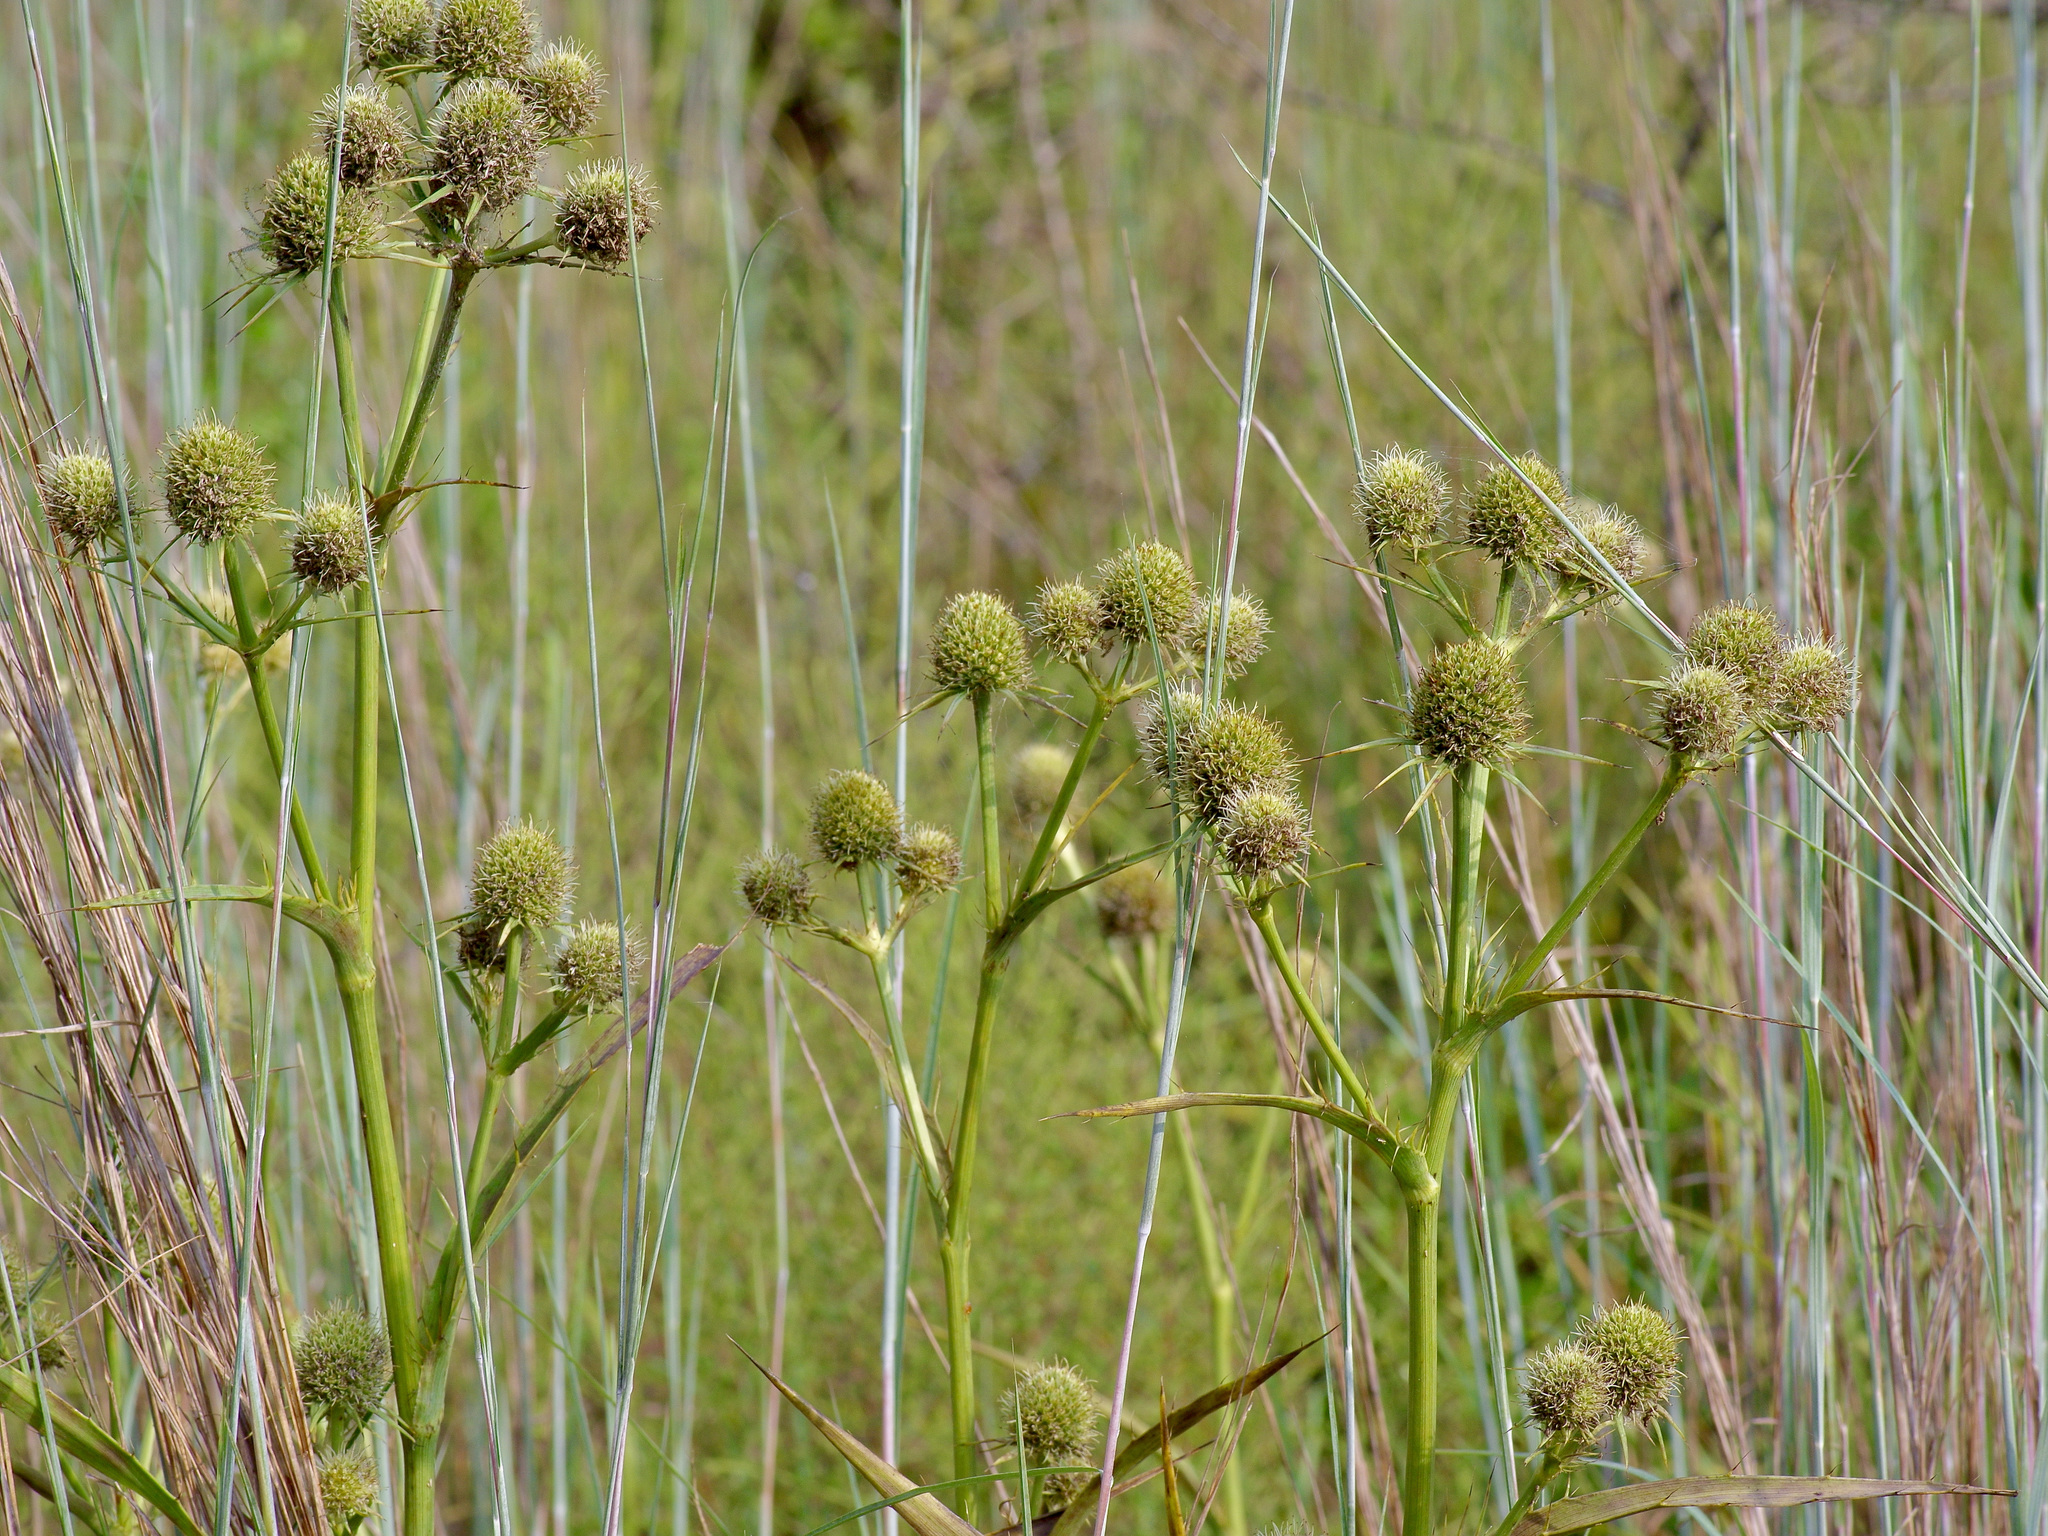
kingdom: Plantae
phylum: Tracheophyta
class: Magnoliopsida
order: Apiales
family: Apiaceae
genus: Eryngium
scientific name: Eryngium yuccifolium
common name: Button eryngo
